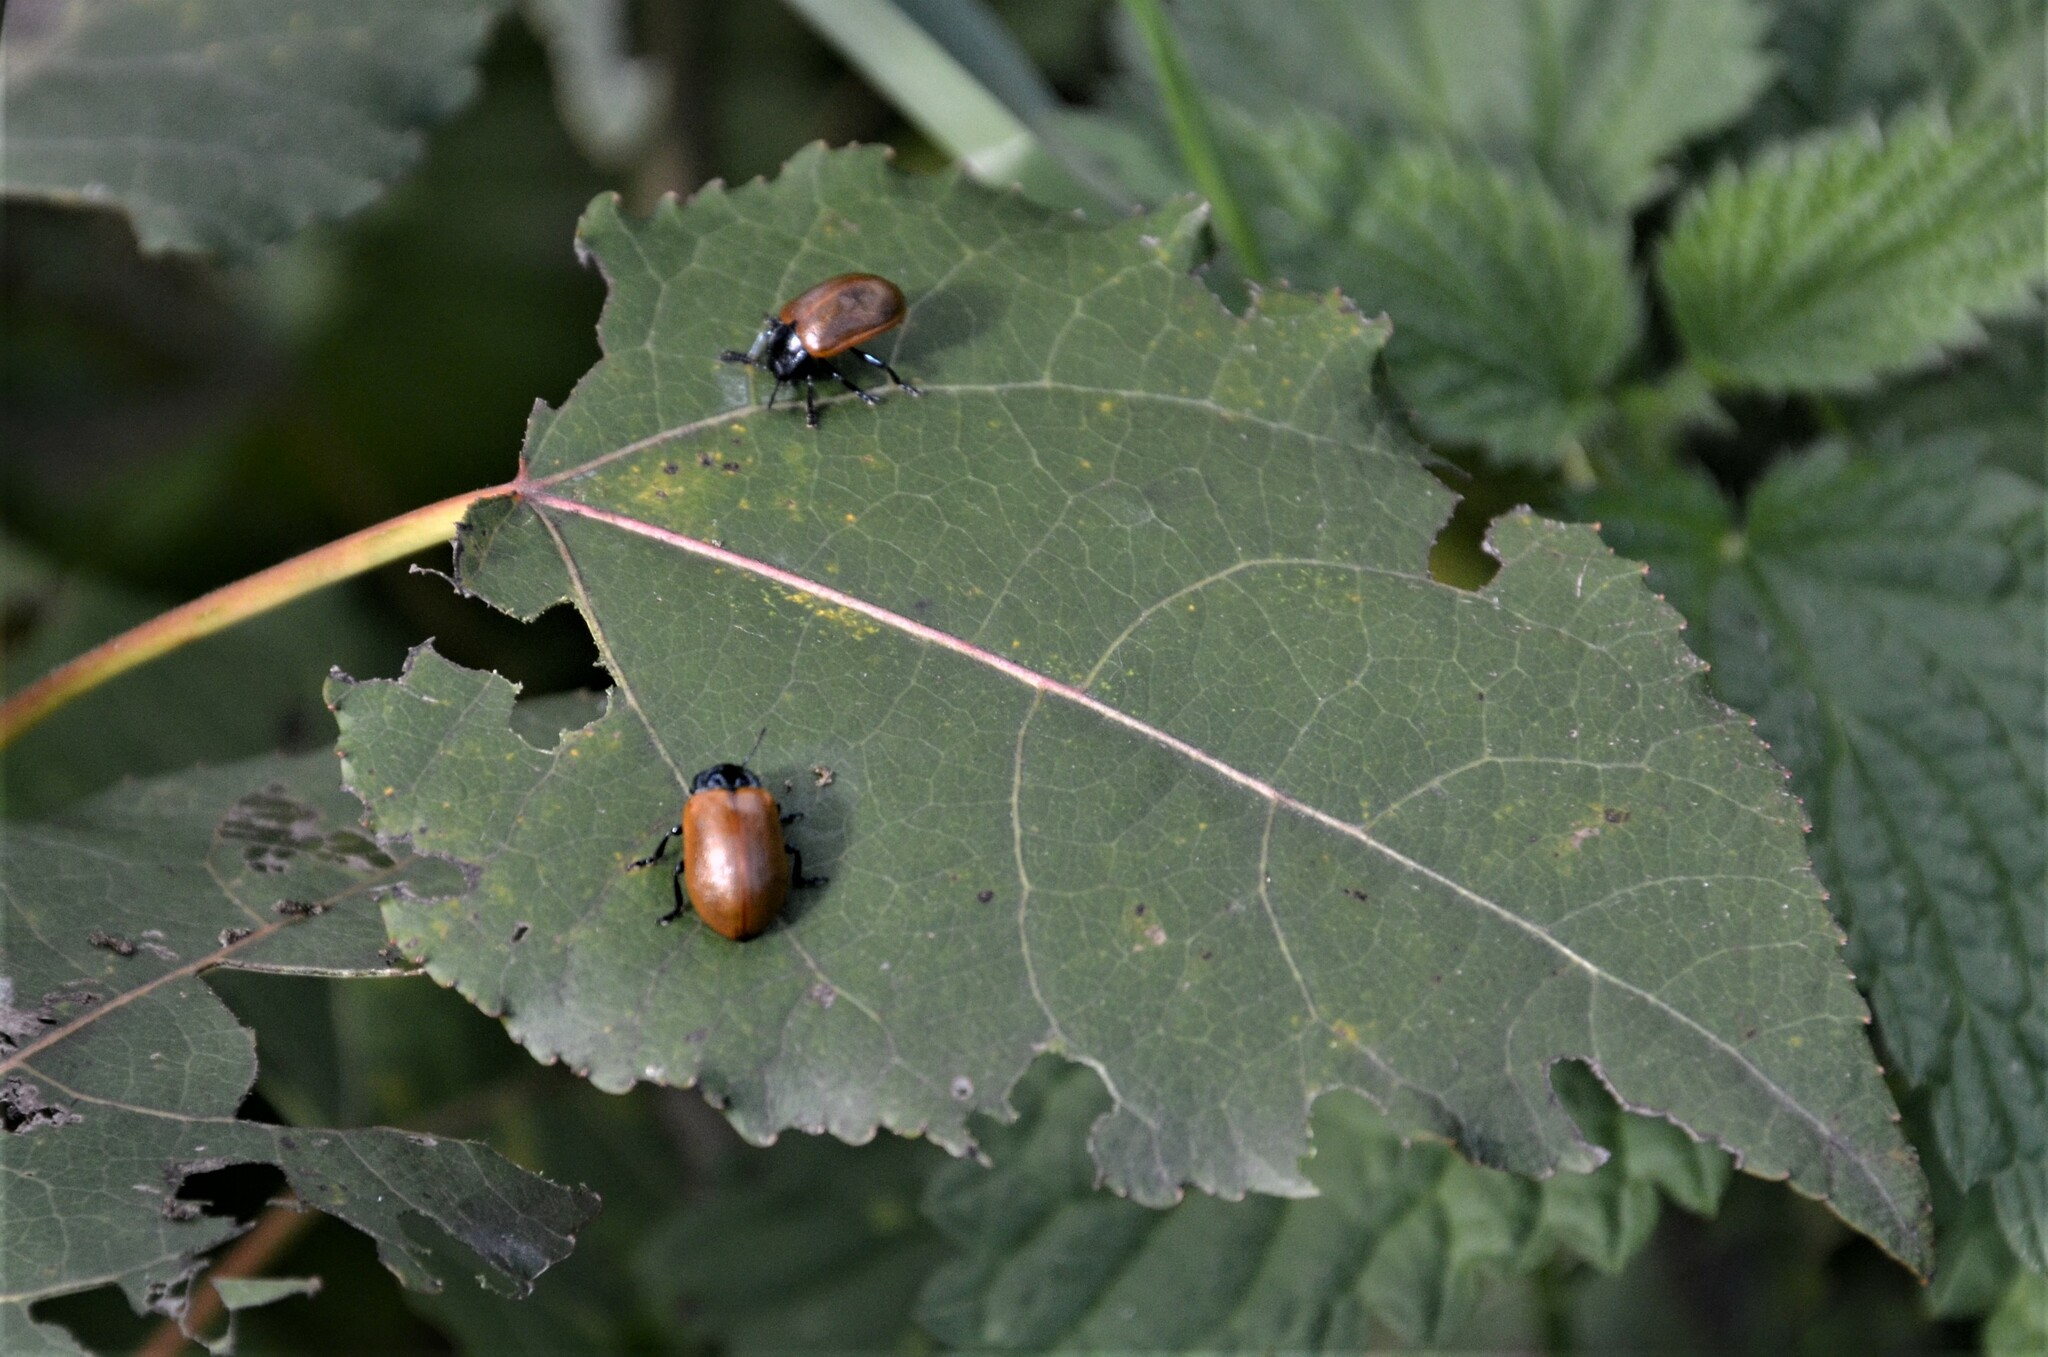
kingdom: Animalia
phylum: Arthropoda
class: Insecta
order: Coleoptera
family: Chrysomelidae
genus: Chrysomela
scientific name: Chrysomela populi
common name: Red poplar leaf beetle
